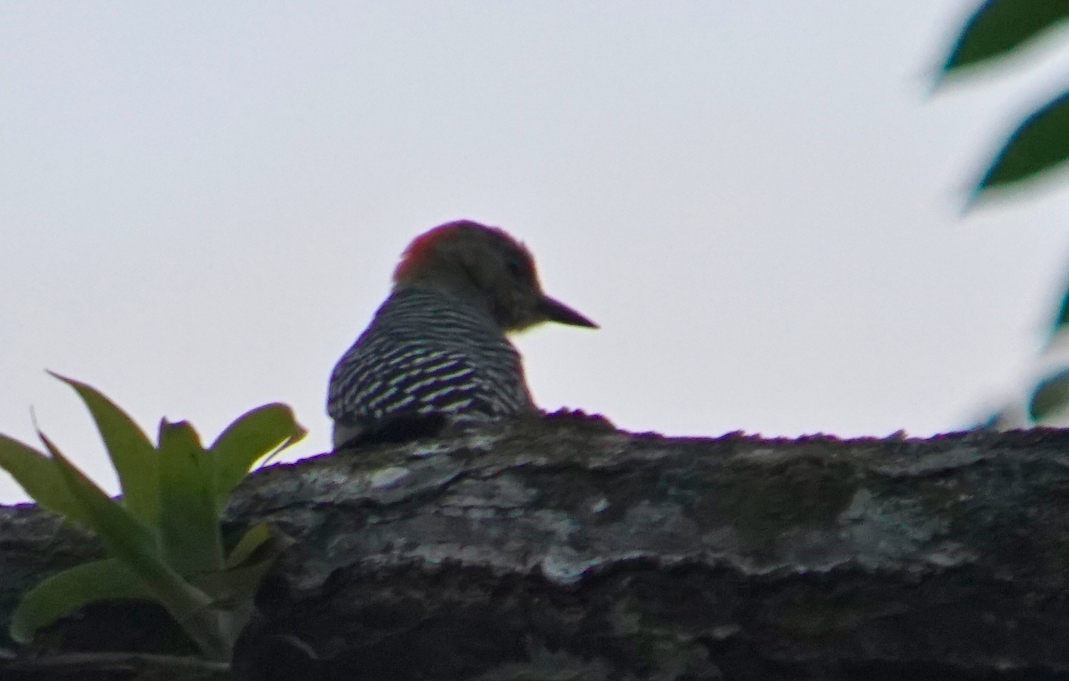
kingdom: Animalia
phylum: Chordata
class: Aves
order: Piciformes
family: Picidae
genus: Melanerpes
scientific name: Melanerpes hoffmannii
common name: Hoffmann's woodpecker
